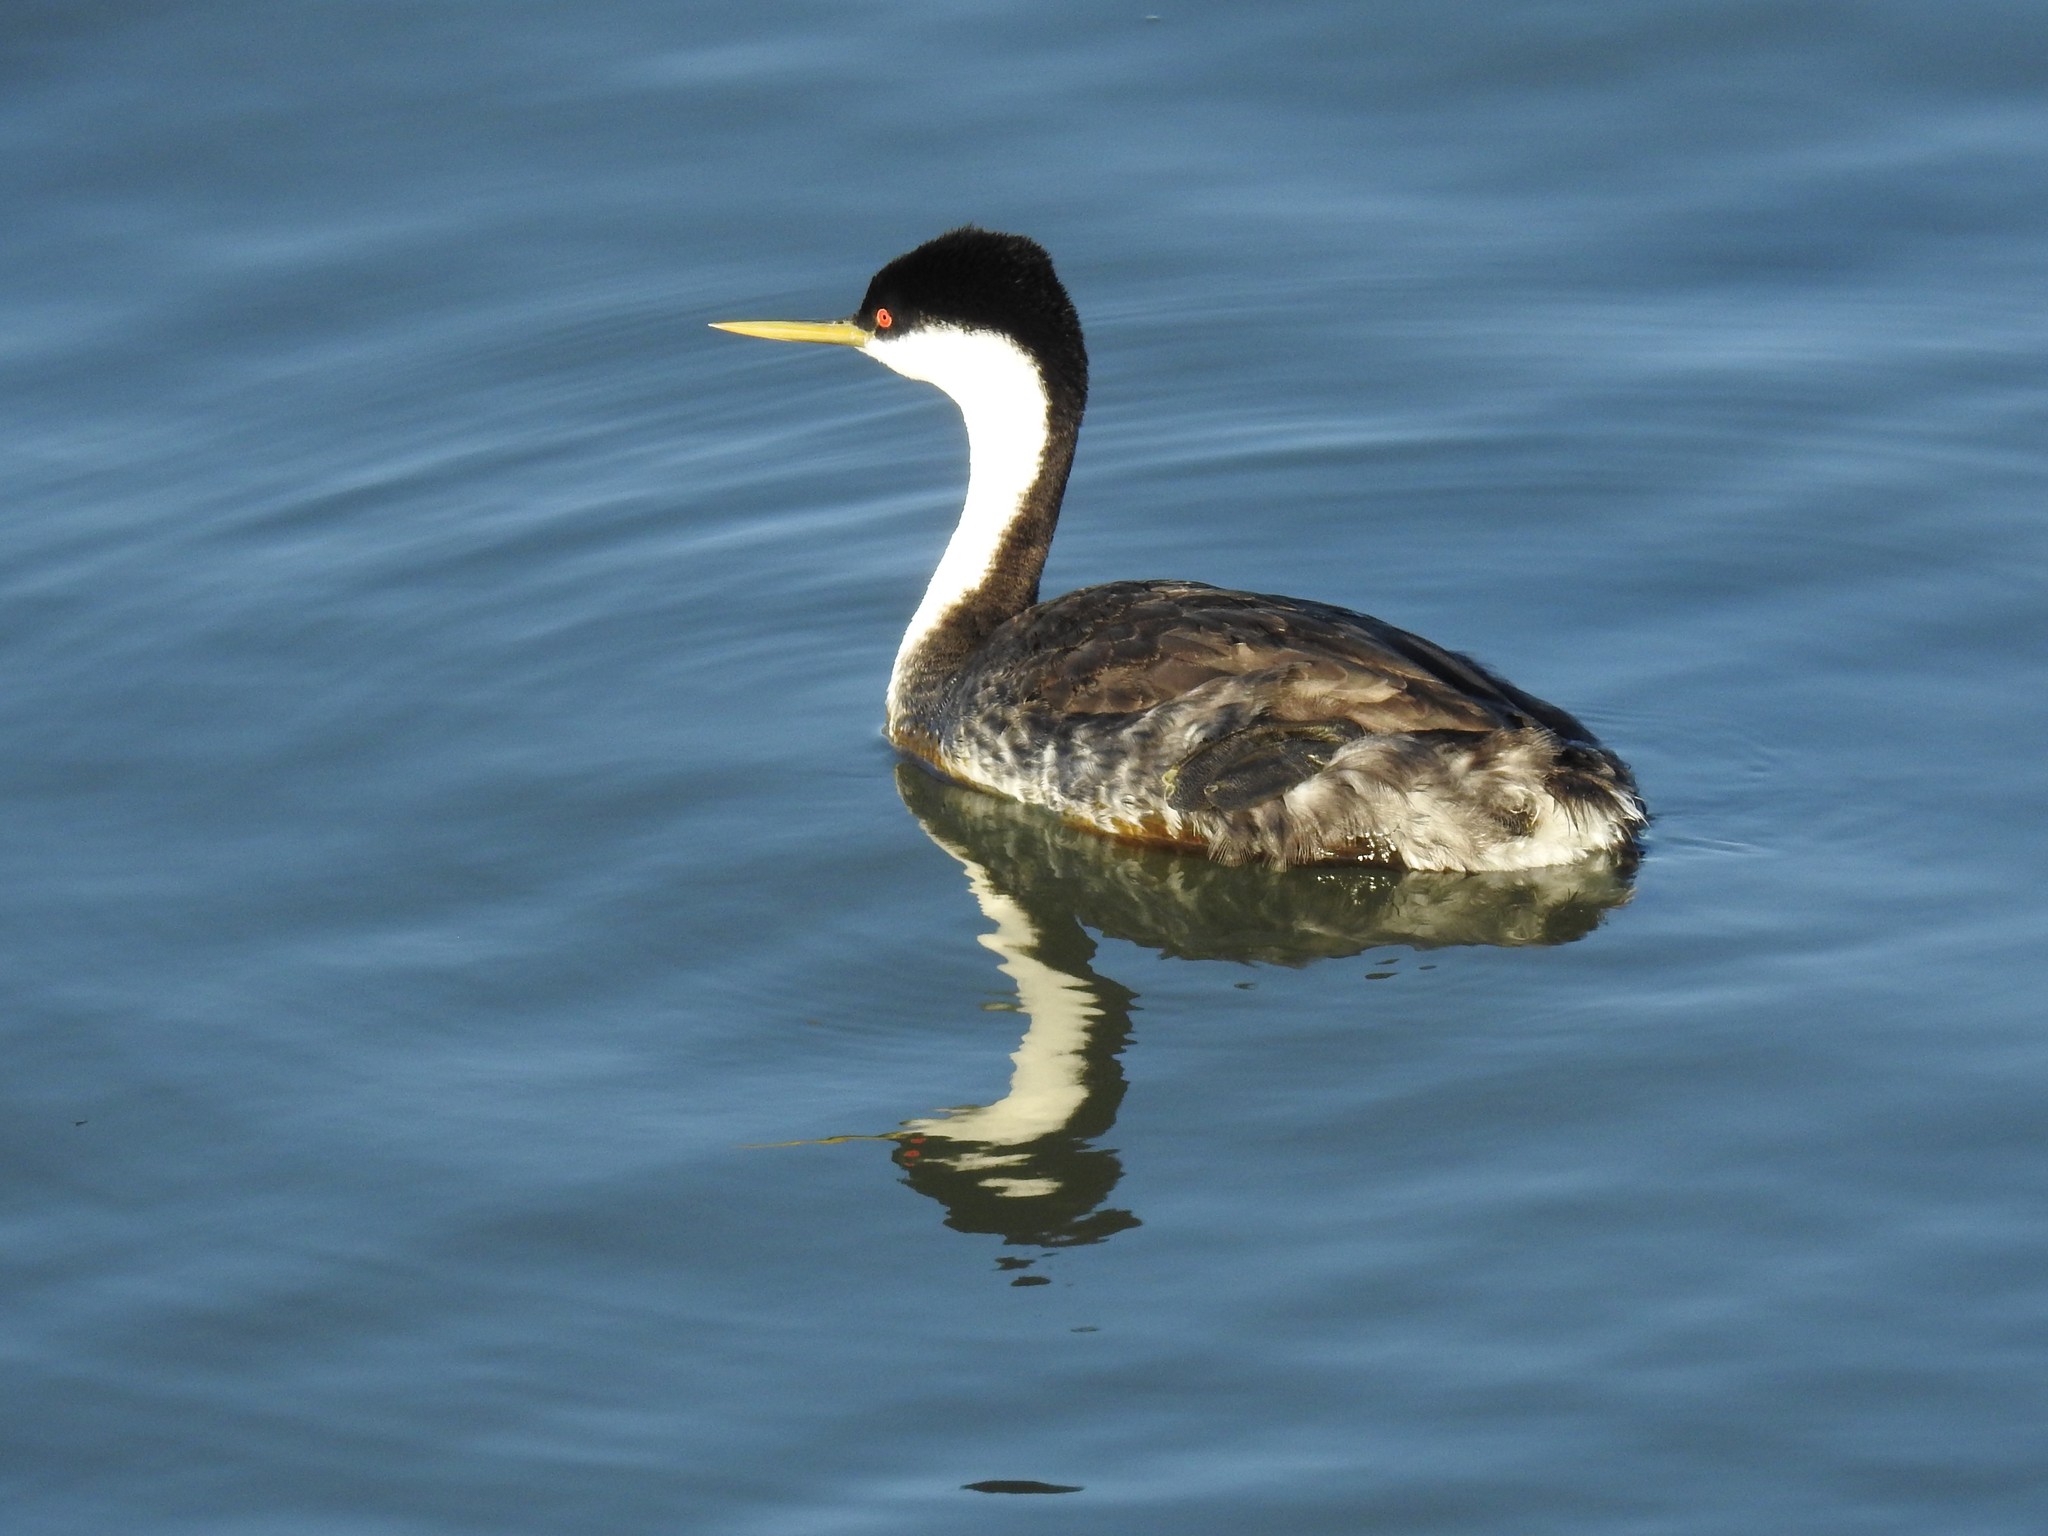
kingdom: Animalia
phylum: Chordata
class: Aves
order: Podicipediformes
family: Podicipedidae
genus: Aechmophorus
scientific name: Aechmophorus occidentalis
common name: Western grebe
